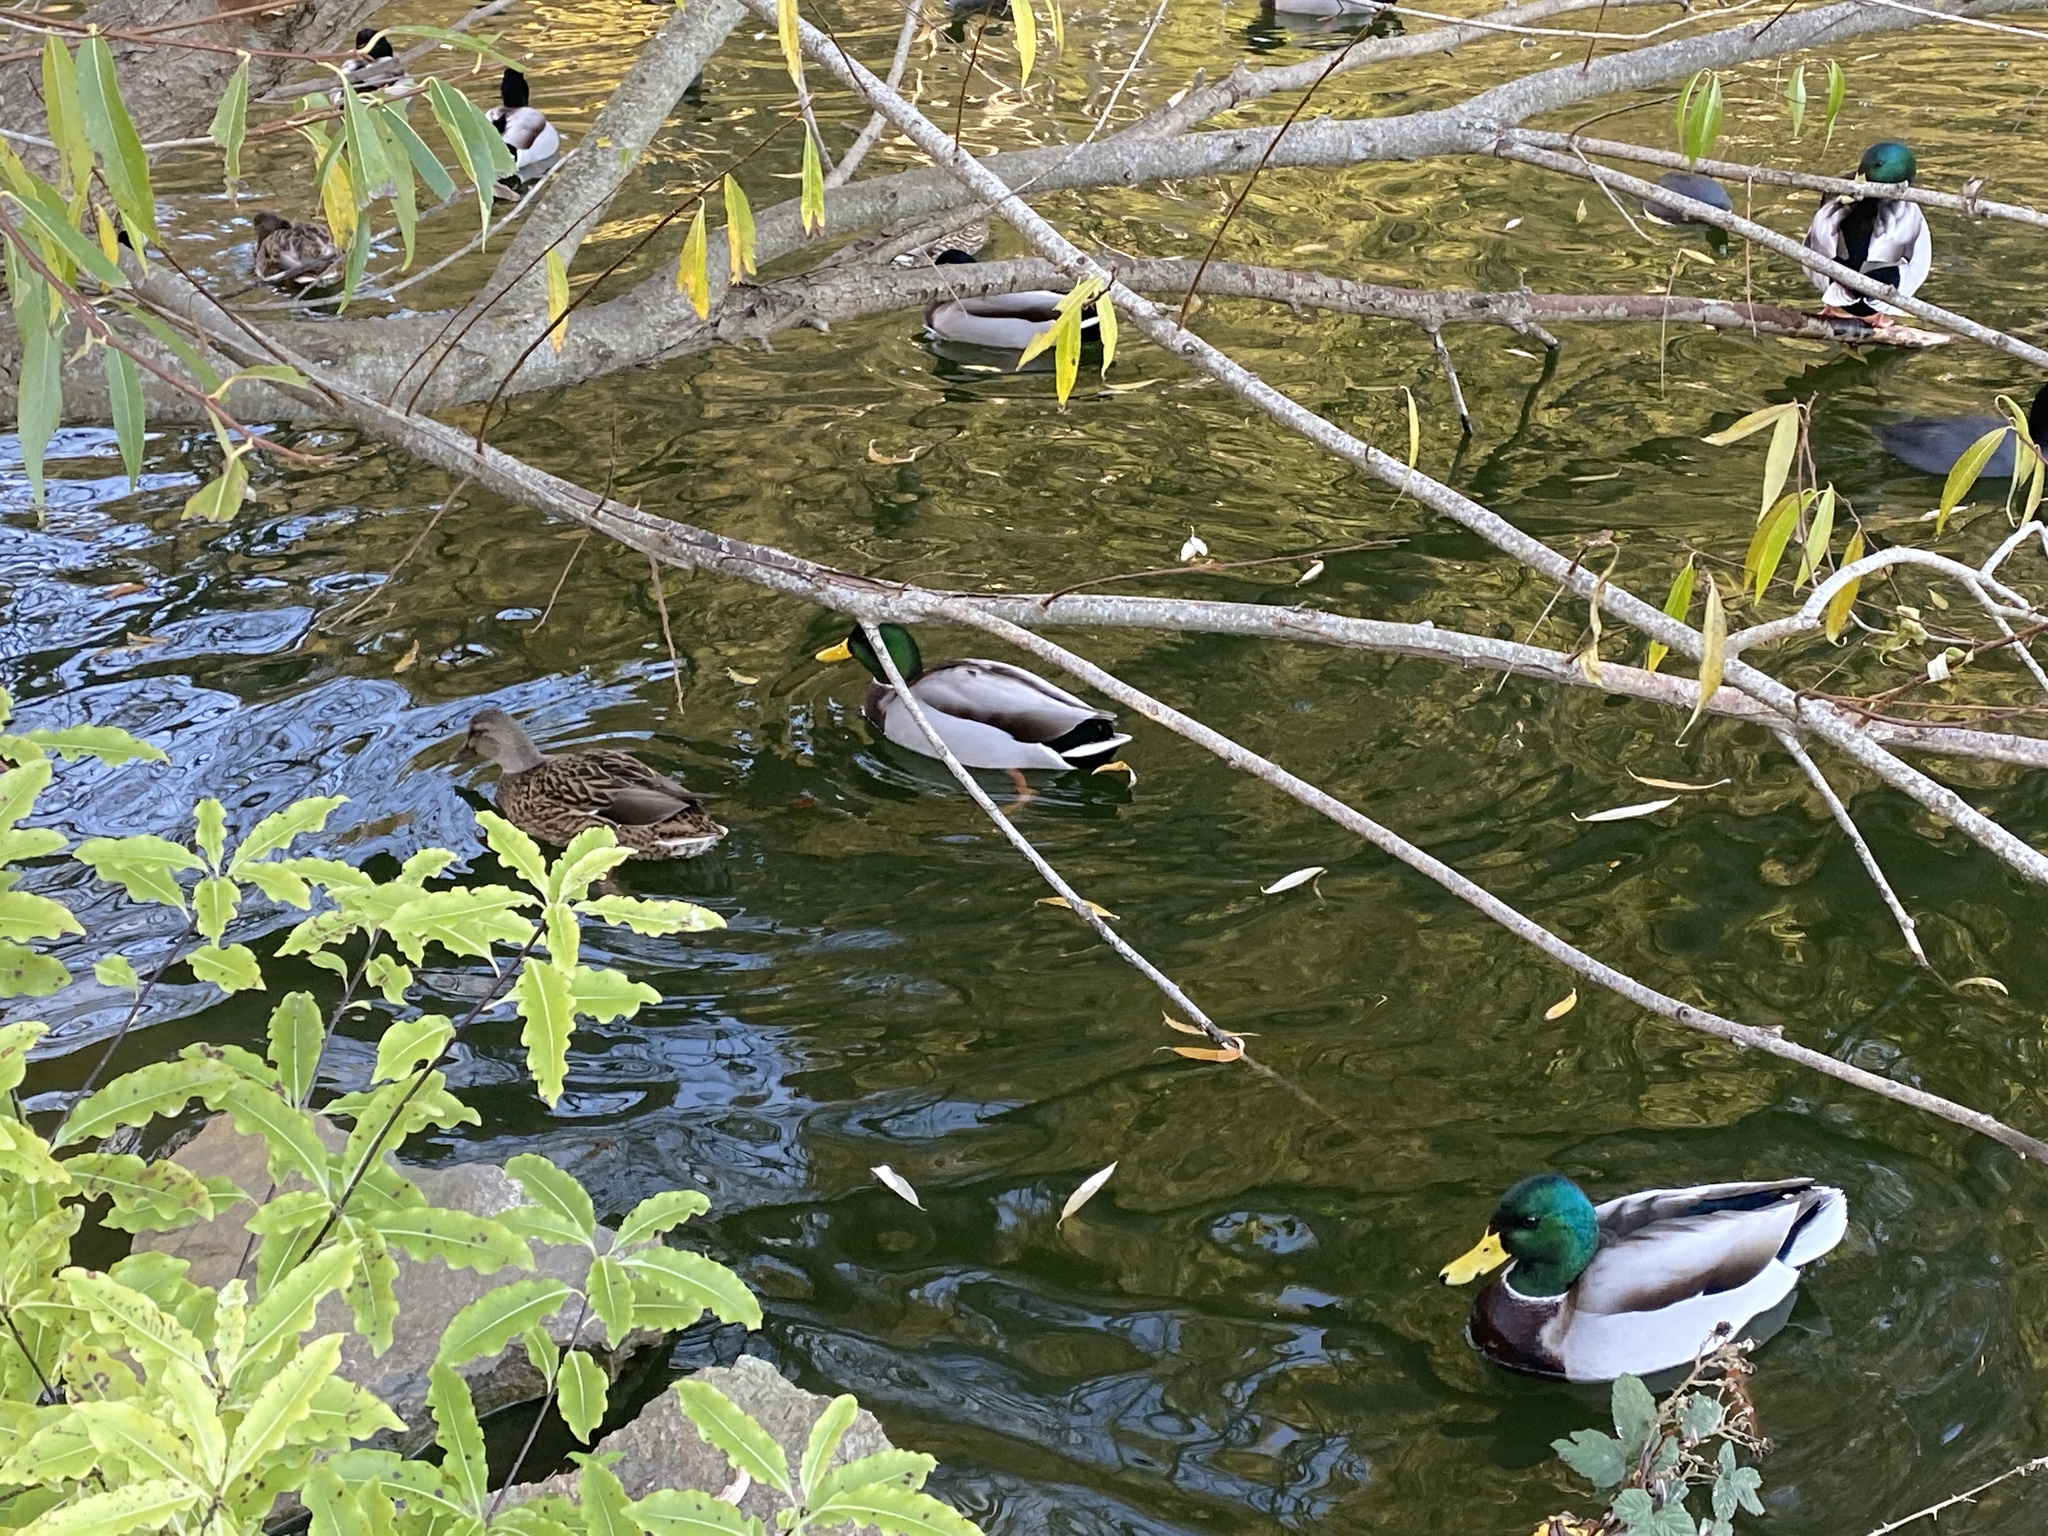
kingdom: Animalia
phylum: Chordata
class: Aves
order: Anseriformes
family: Anatidae
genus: Anas
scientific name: Anas platyrhynchos
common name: Mallard
